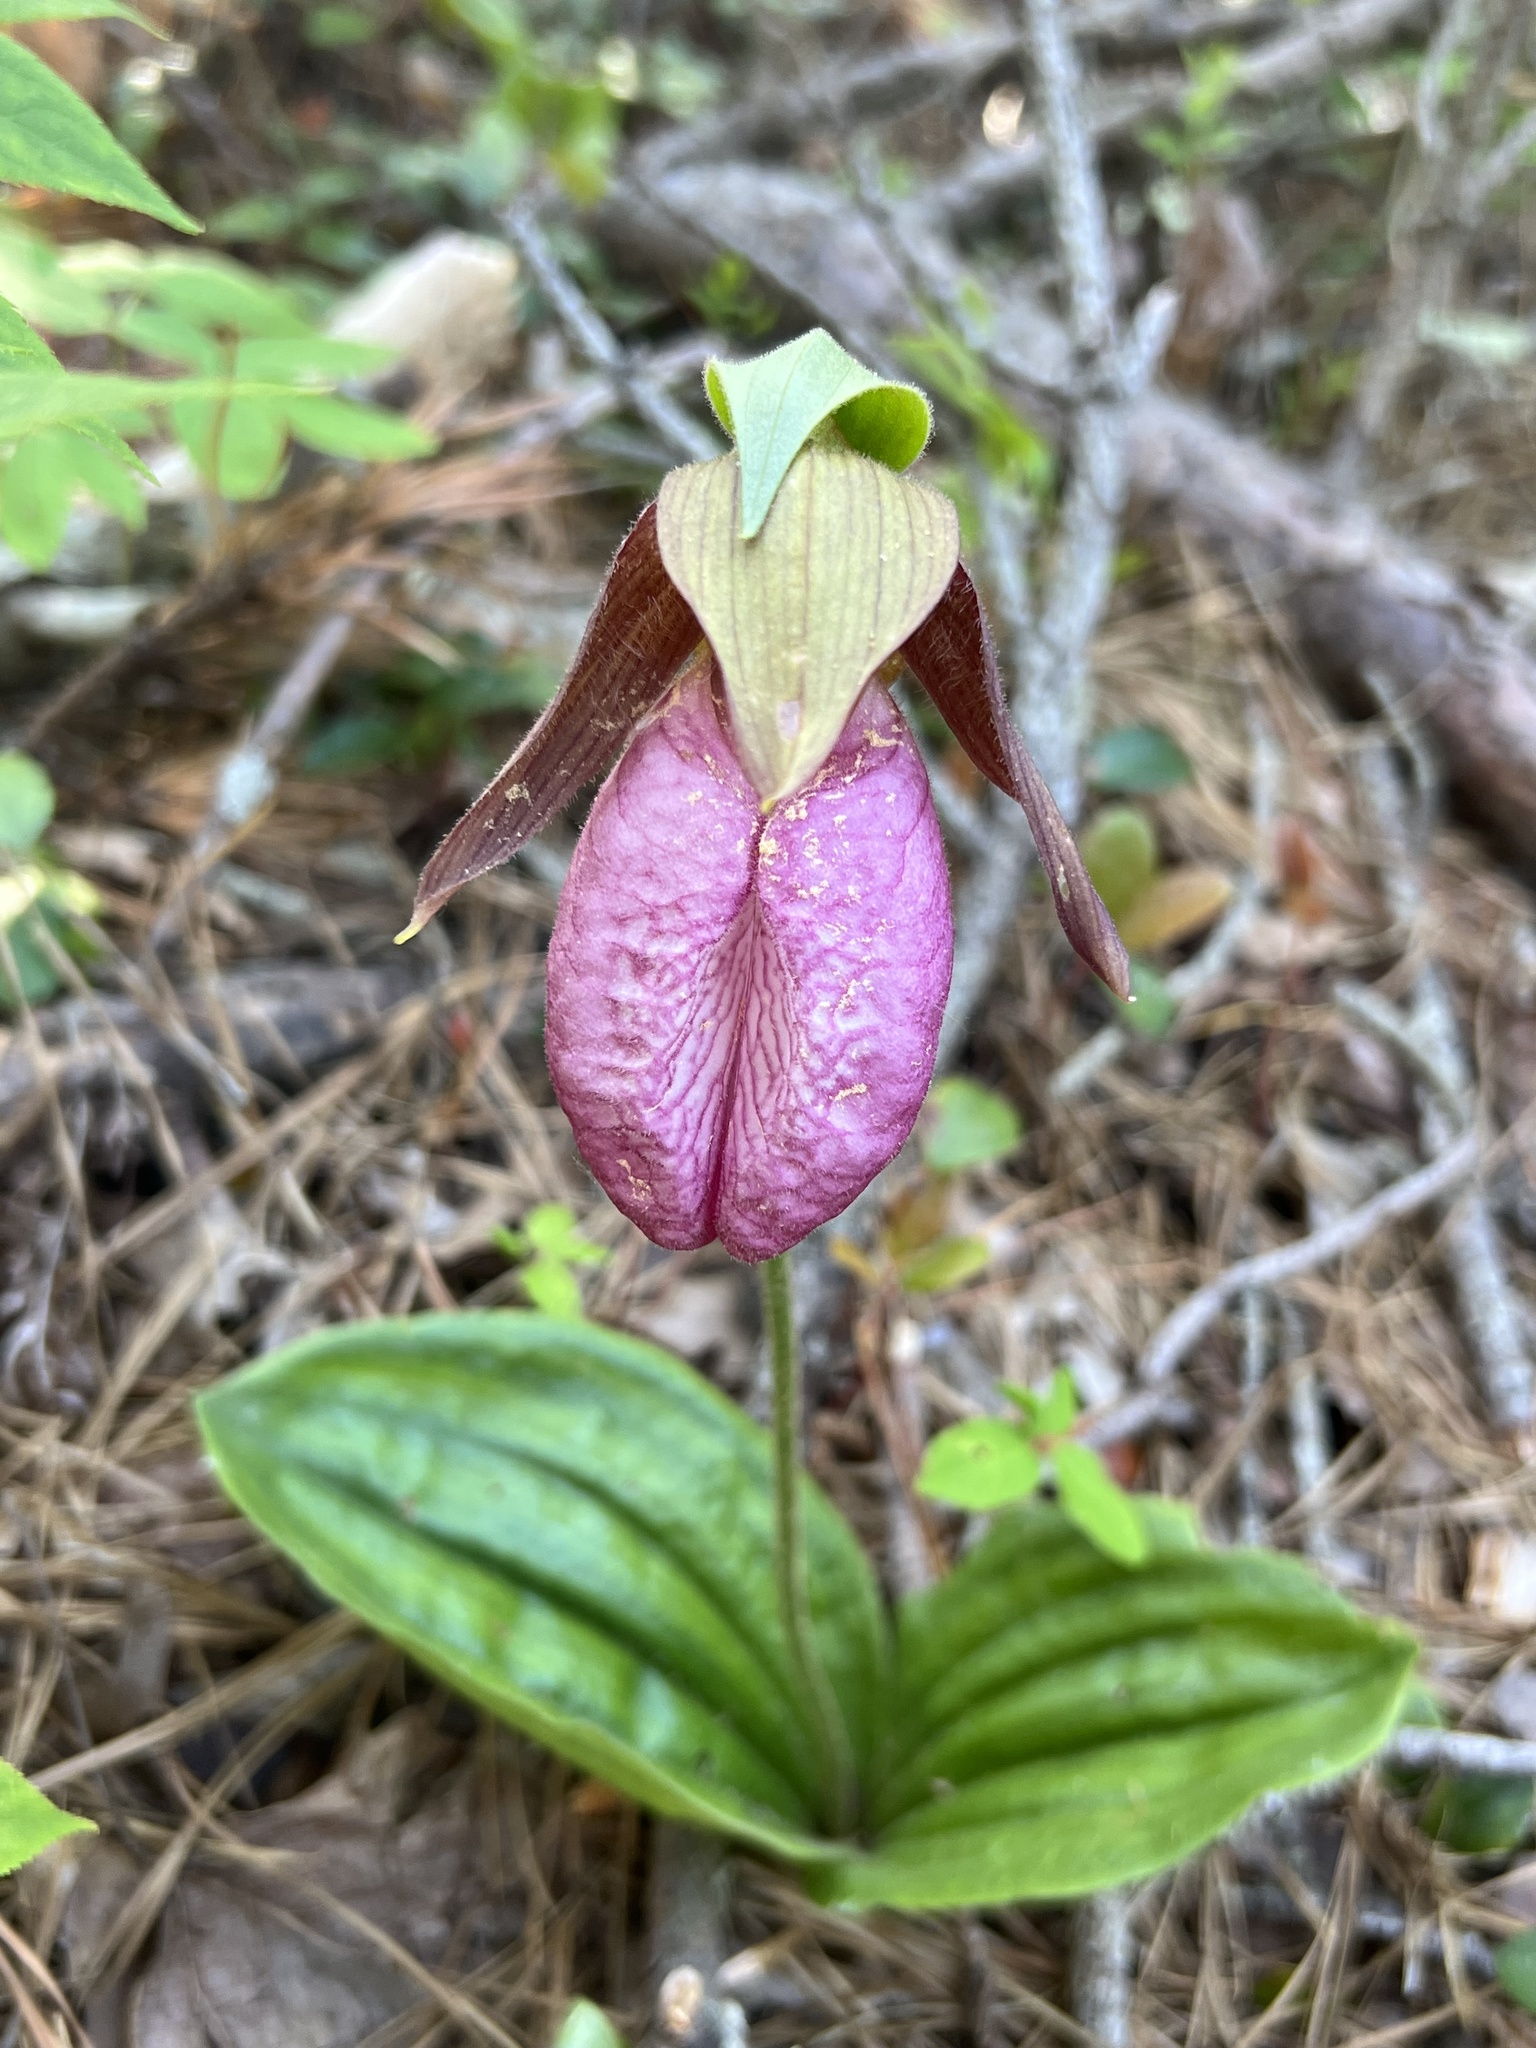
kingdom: Plantae
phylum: Tracheophyta
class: Liliopsida
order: Asparagales
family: Orchidaceae
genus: Cypripedium
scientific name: Cypripedium acaule
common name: Pink lady's-slipper
